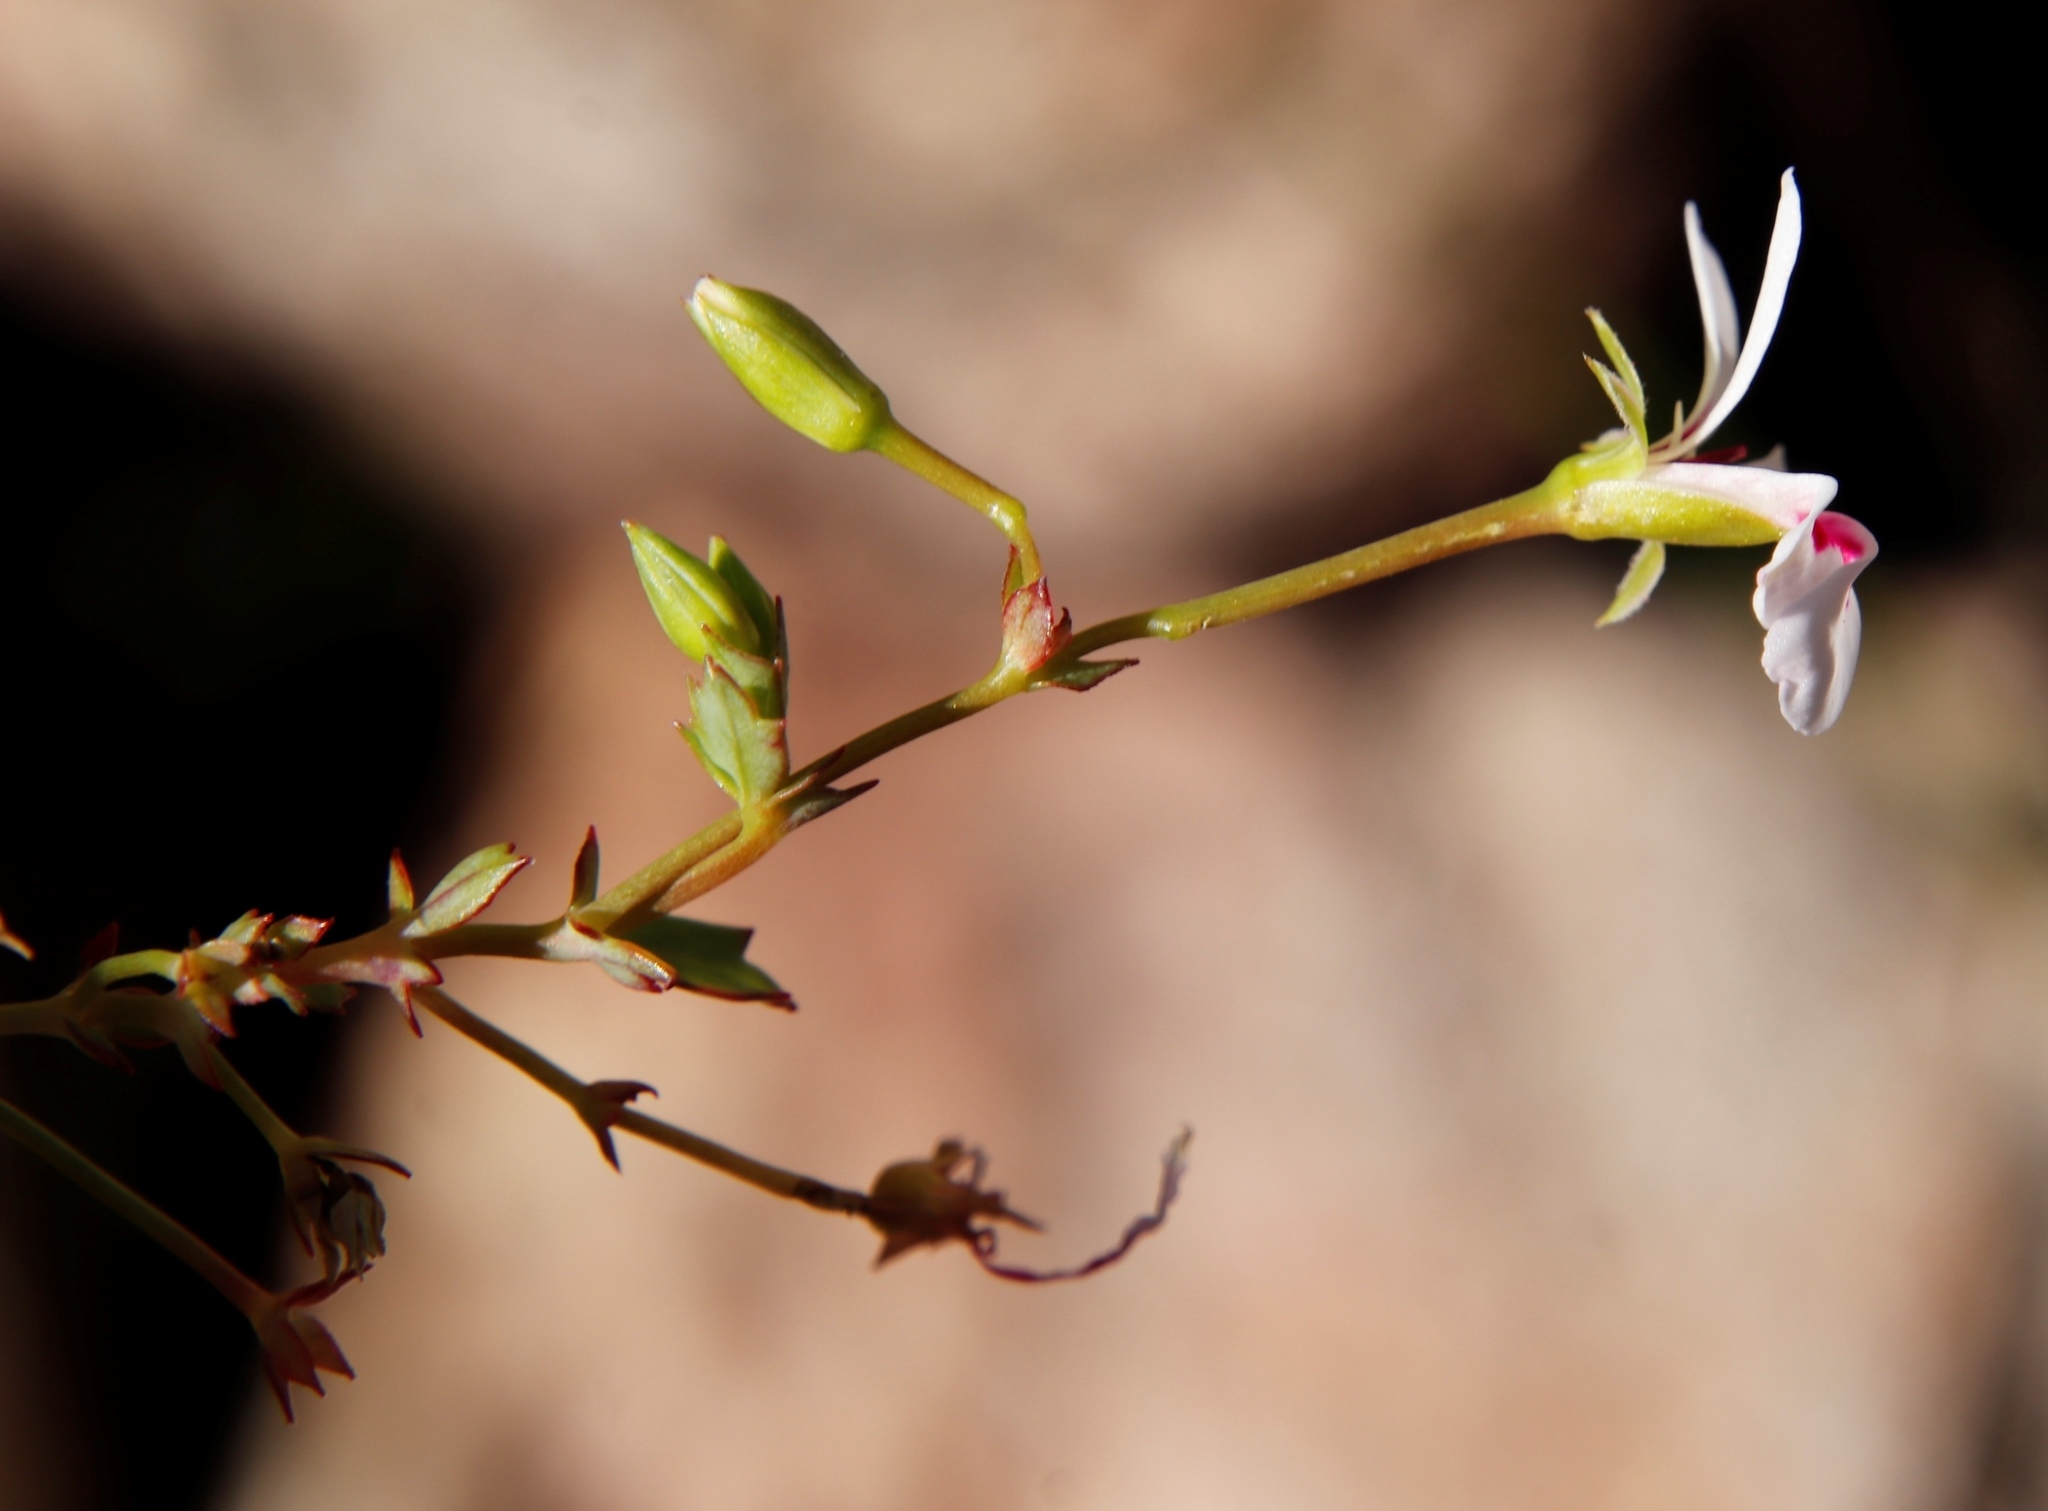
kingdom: Plantae
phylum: Tracheophyta
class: Magnoliopsida
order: Geraniales
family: Geraniaceae
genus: Pelargonium
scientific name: Pelargonium patulum
